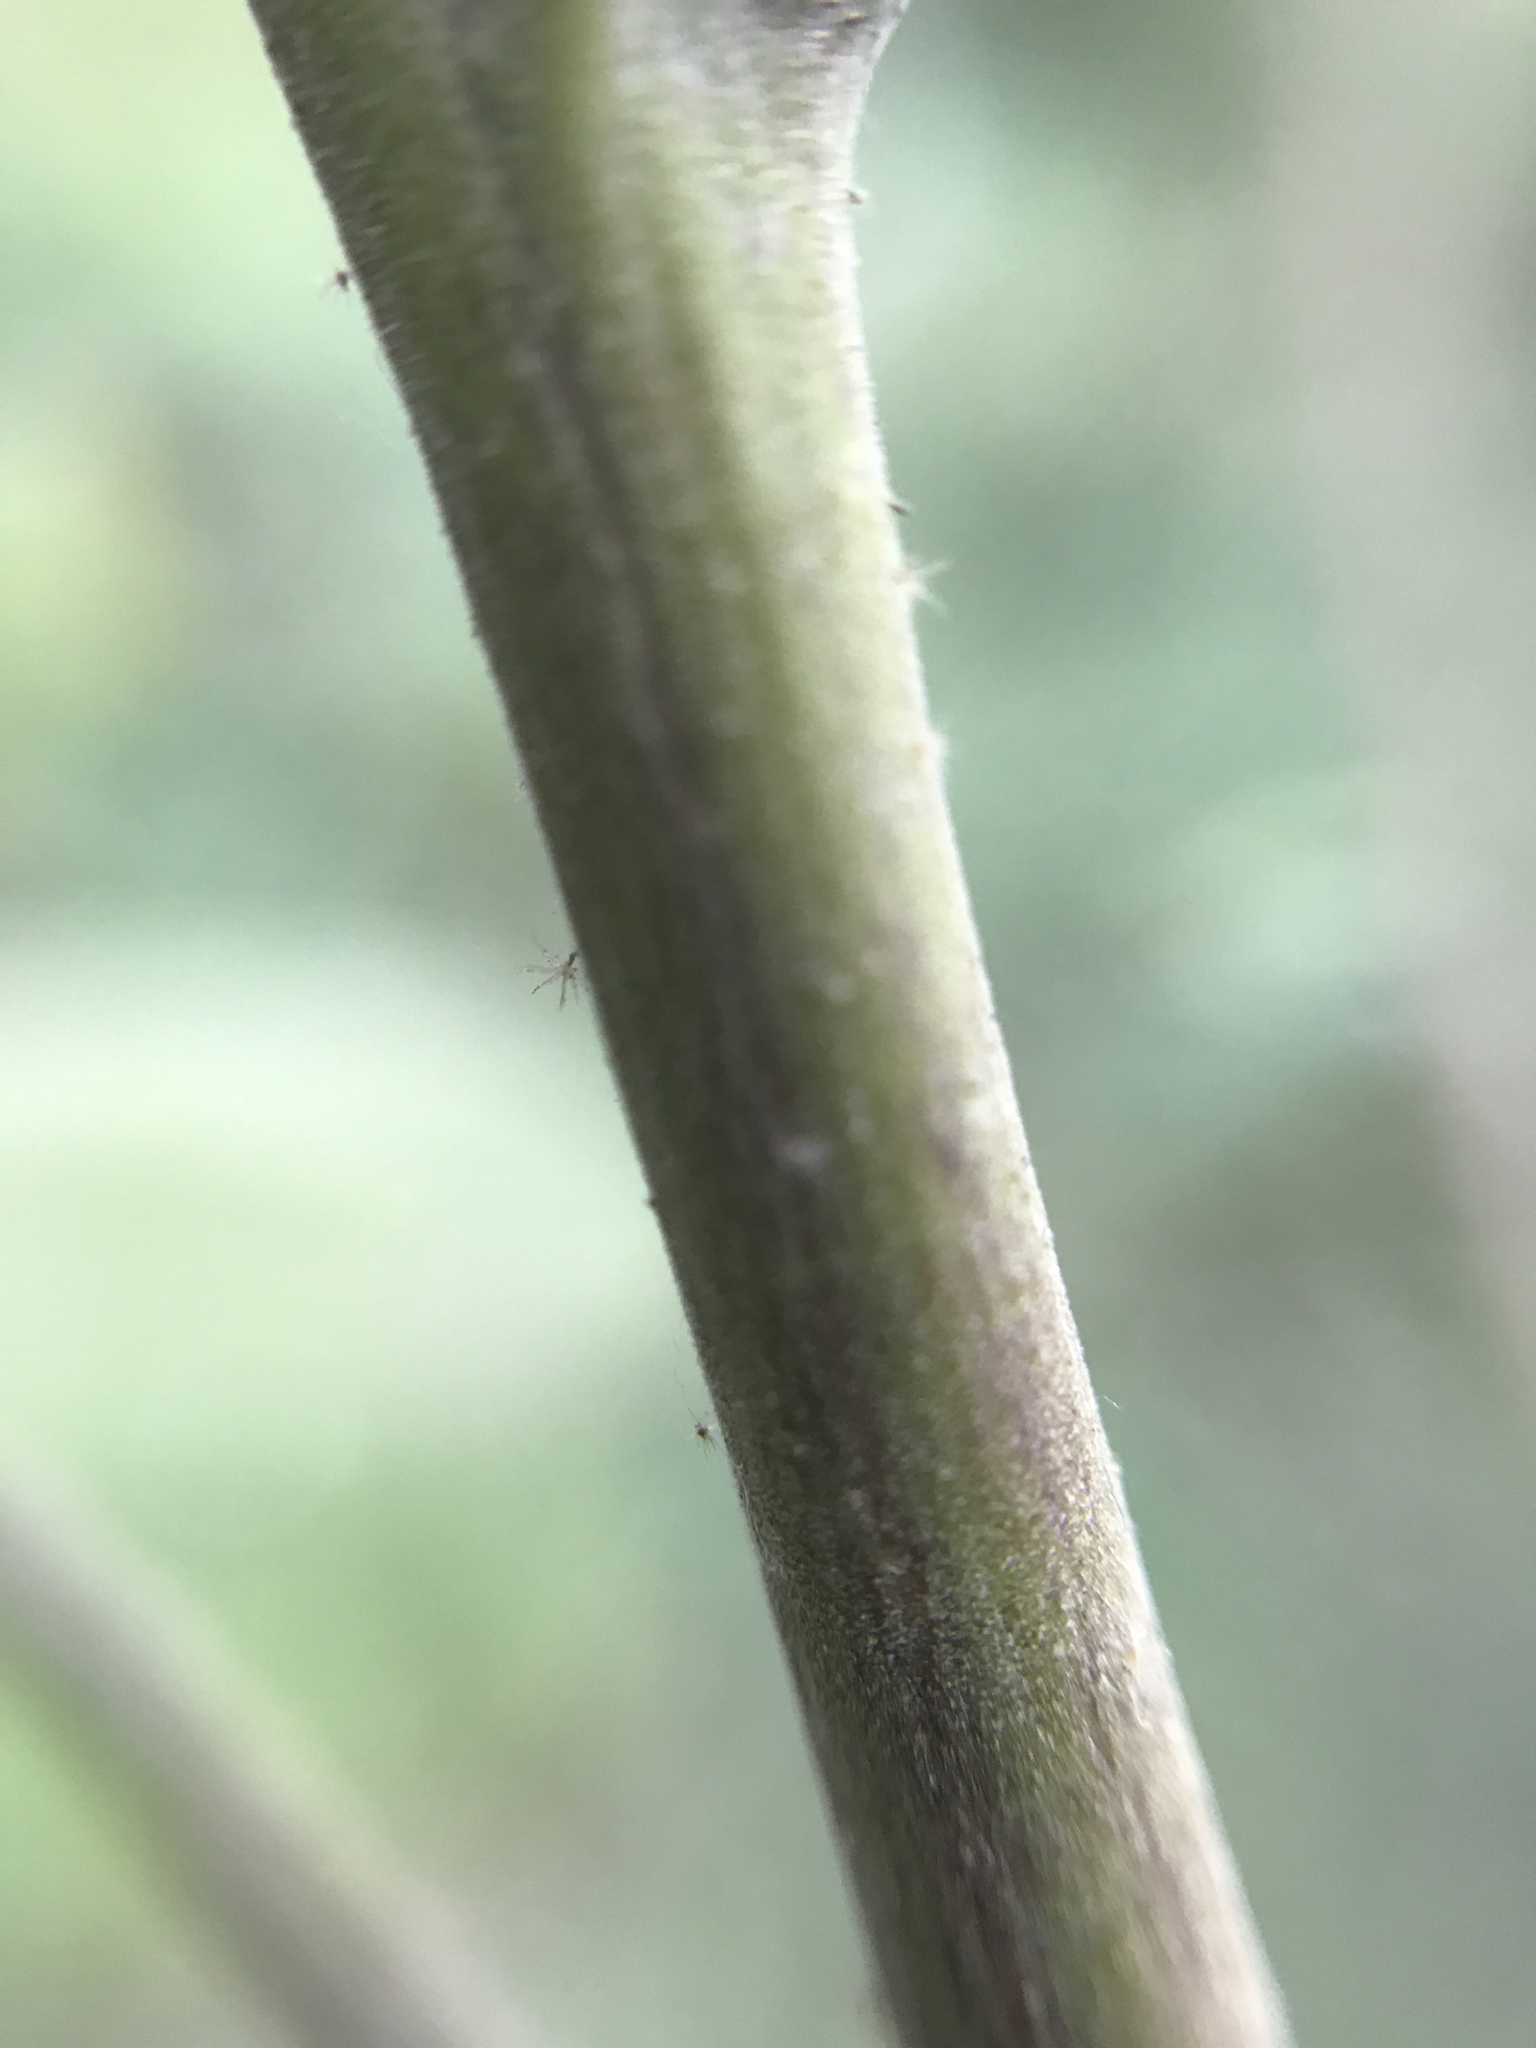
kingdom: Plantae
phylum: Tracheophyta
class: Magnoliopsida
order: Malvales
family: Malvaceae
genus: Wissadula
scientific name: Wissadula amplissima
